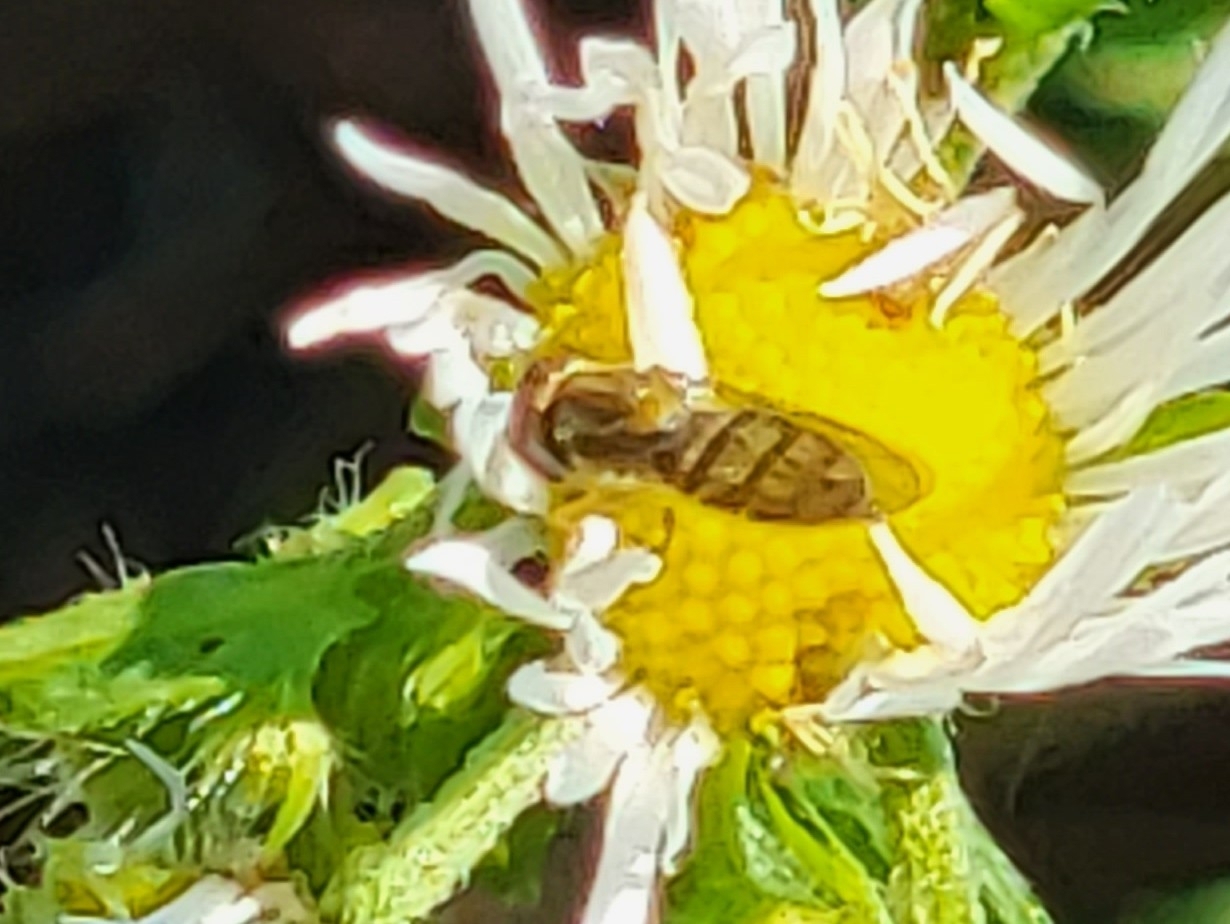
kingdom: Animalia
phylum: Arthropoda
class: Insecta
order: Diptera
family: Syrphidae
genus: Toxomerus
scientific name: Toxomerus marginatus
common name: Syrphid fly
